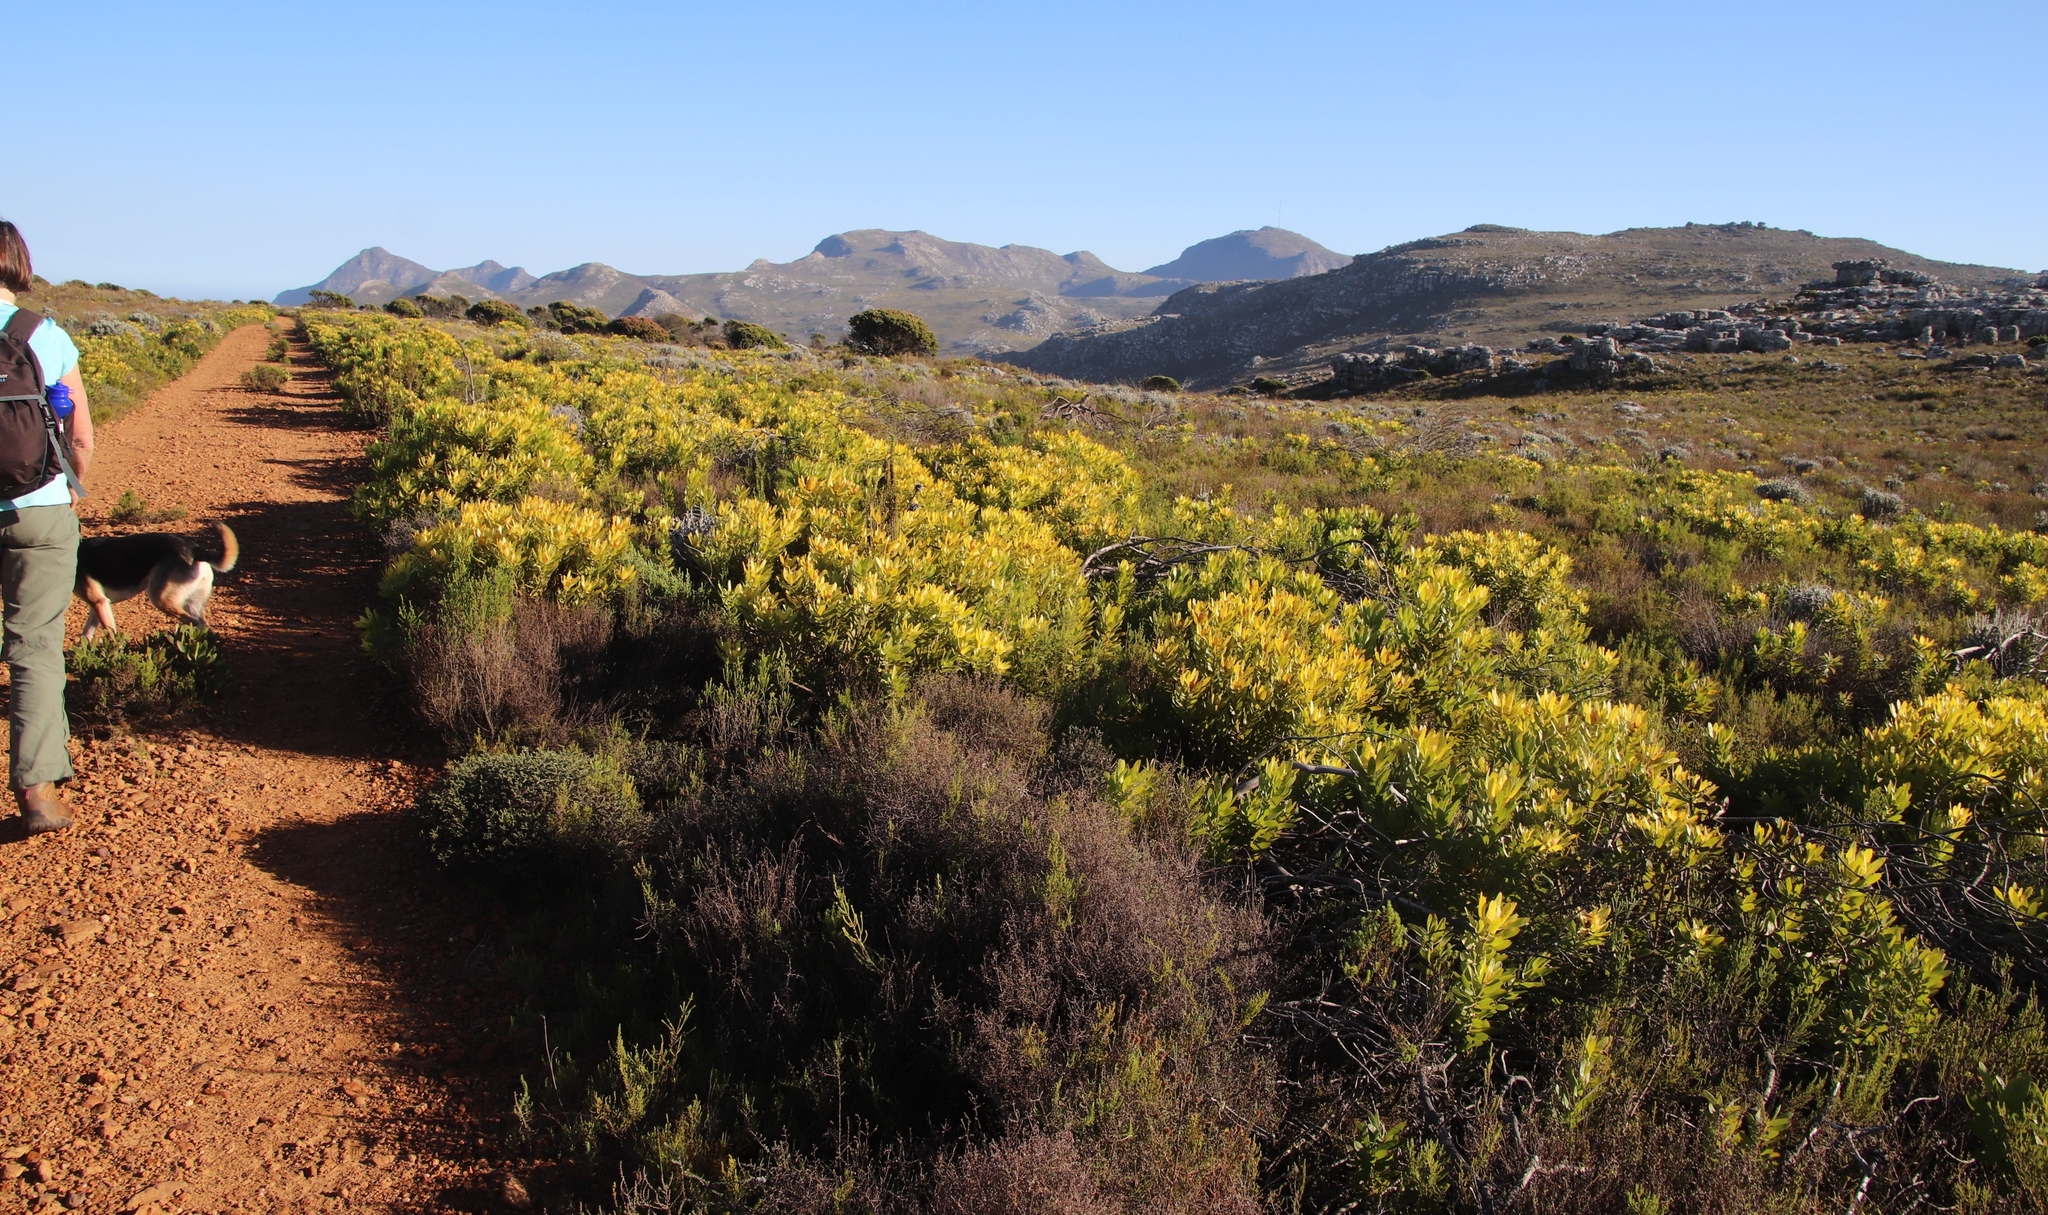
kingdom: Plantae
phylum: Tracheophyta
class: Magnoliopsida
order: Proteales
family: Proteaceae
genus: Leucadendron
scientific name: Leucadendron laureolum
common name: Golden sunshinebush
